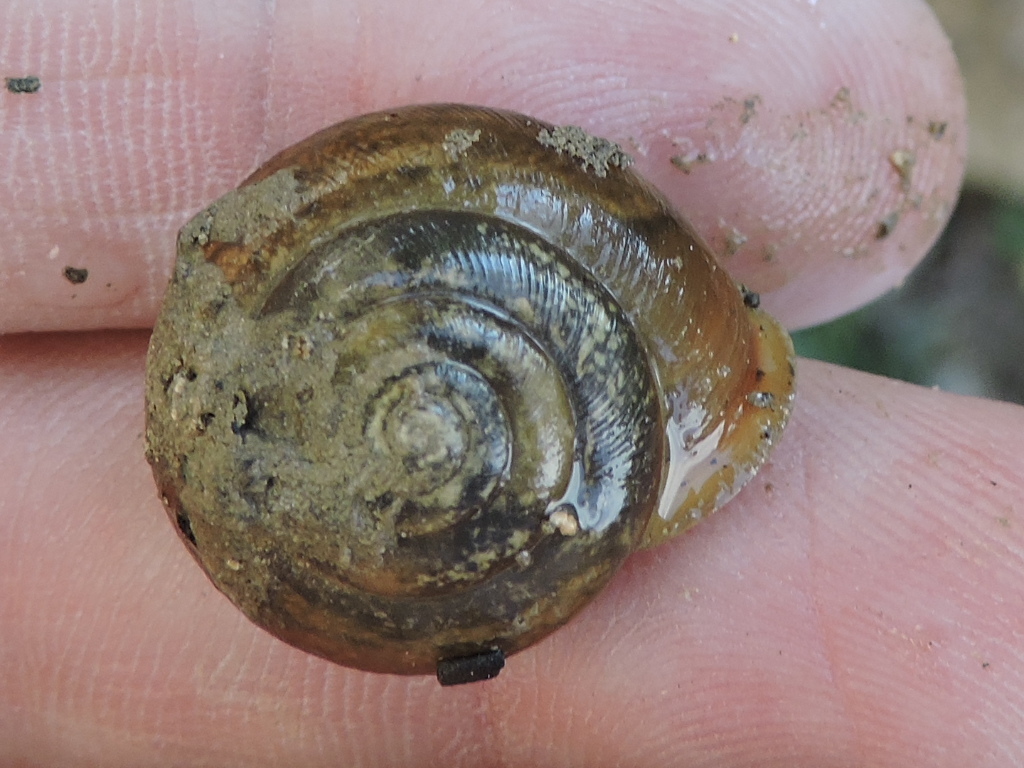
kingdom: Animalia
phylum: Mollusca
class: Gastropoda
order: Stylommatophora
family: Polygyridae
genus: Patera
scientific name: Patera roemeri
